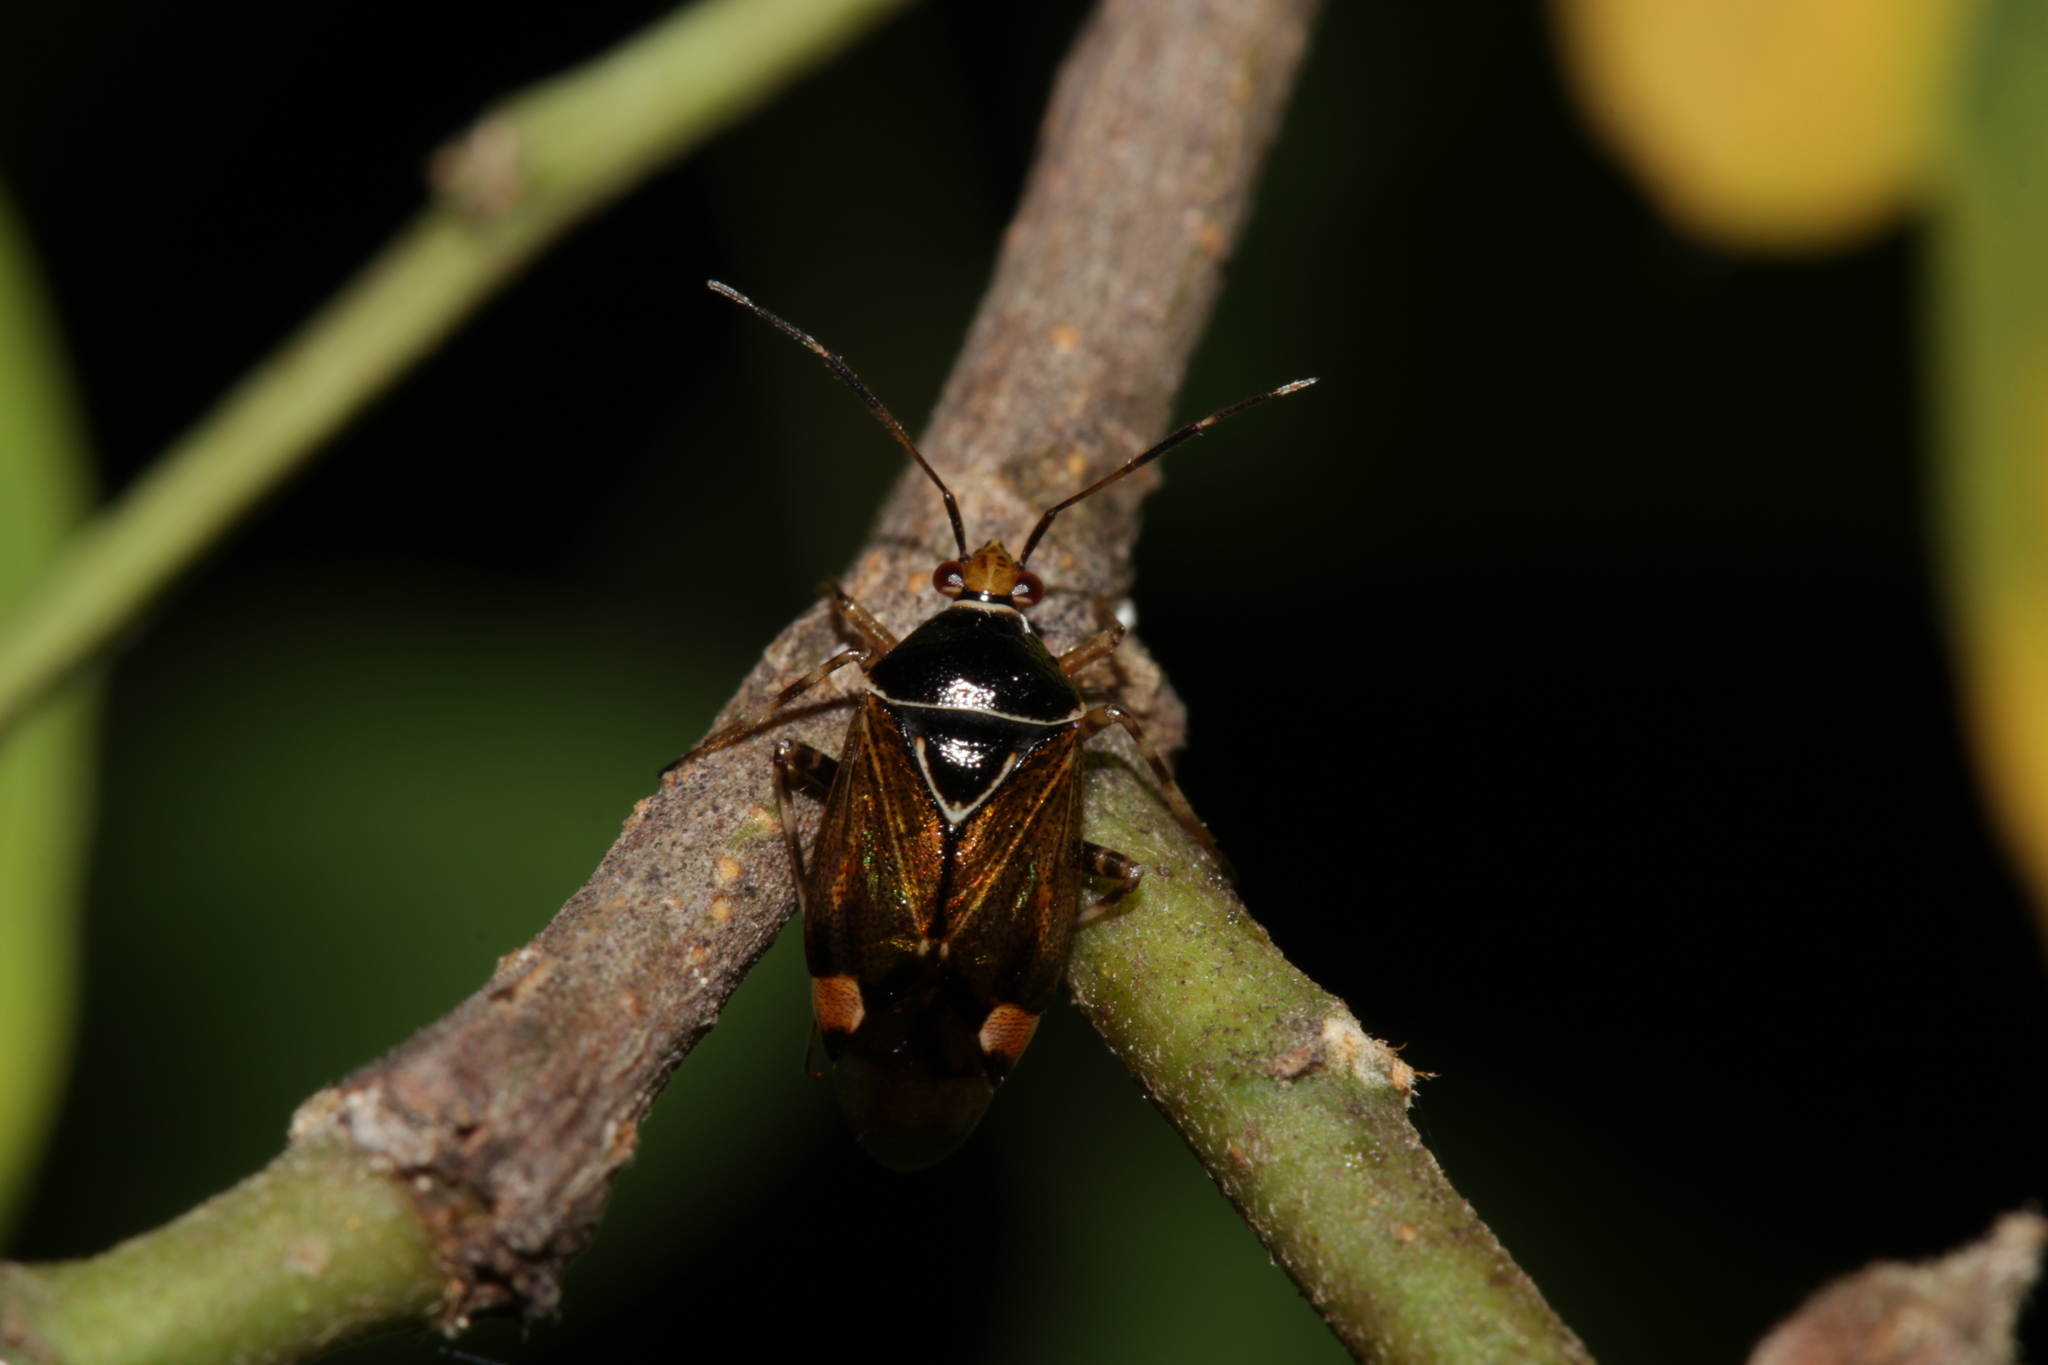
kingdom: Animalia
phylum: Arthropoda
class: Insecta
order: Hemiptera
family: Miridae
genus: Deraeocoris
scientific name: Deraeocoris flavilinea
